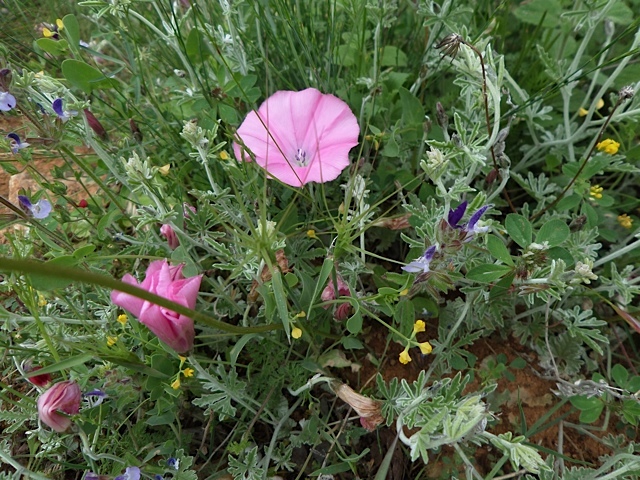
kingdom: Plantae
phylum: Tracheophyta
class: Magnoliopsida
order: Solanales
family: Convolvulaceae
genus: Convolvulus
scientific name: Convolvulus elegantissimus
